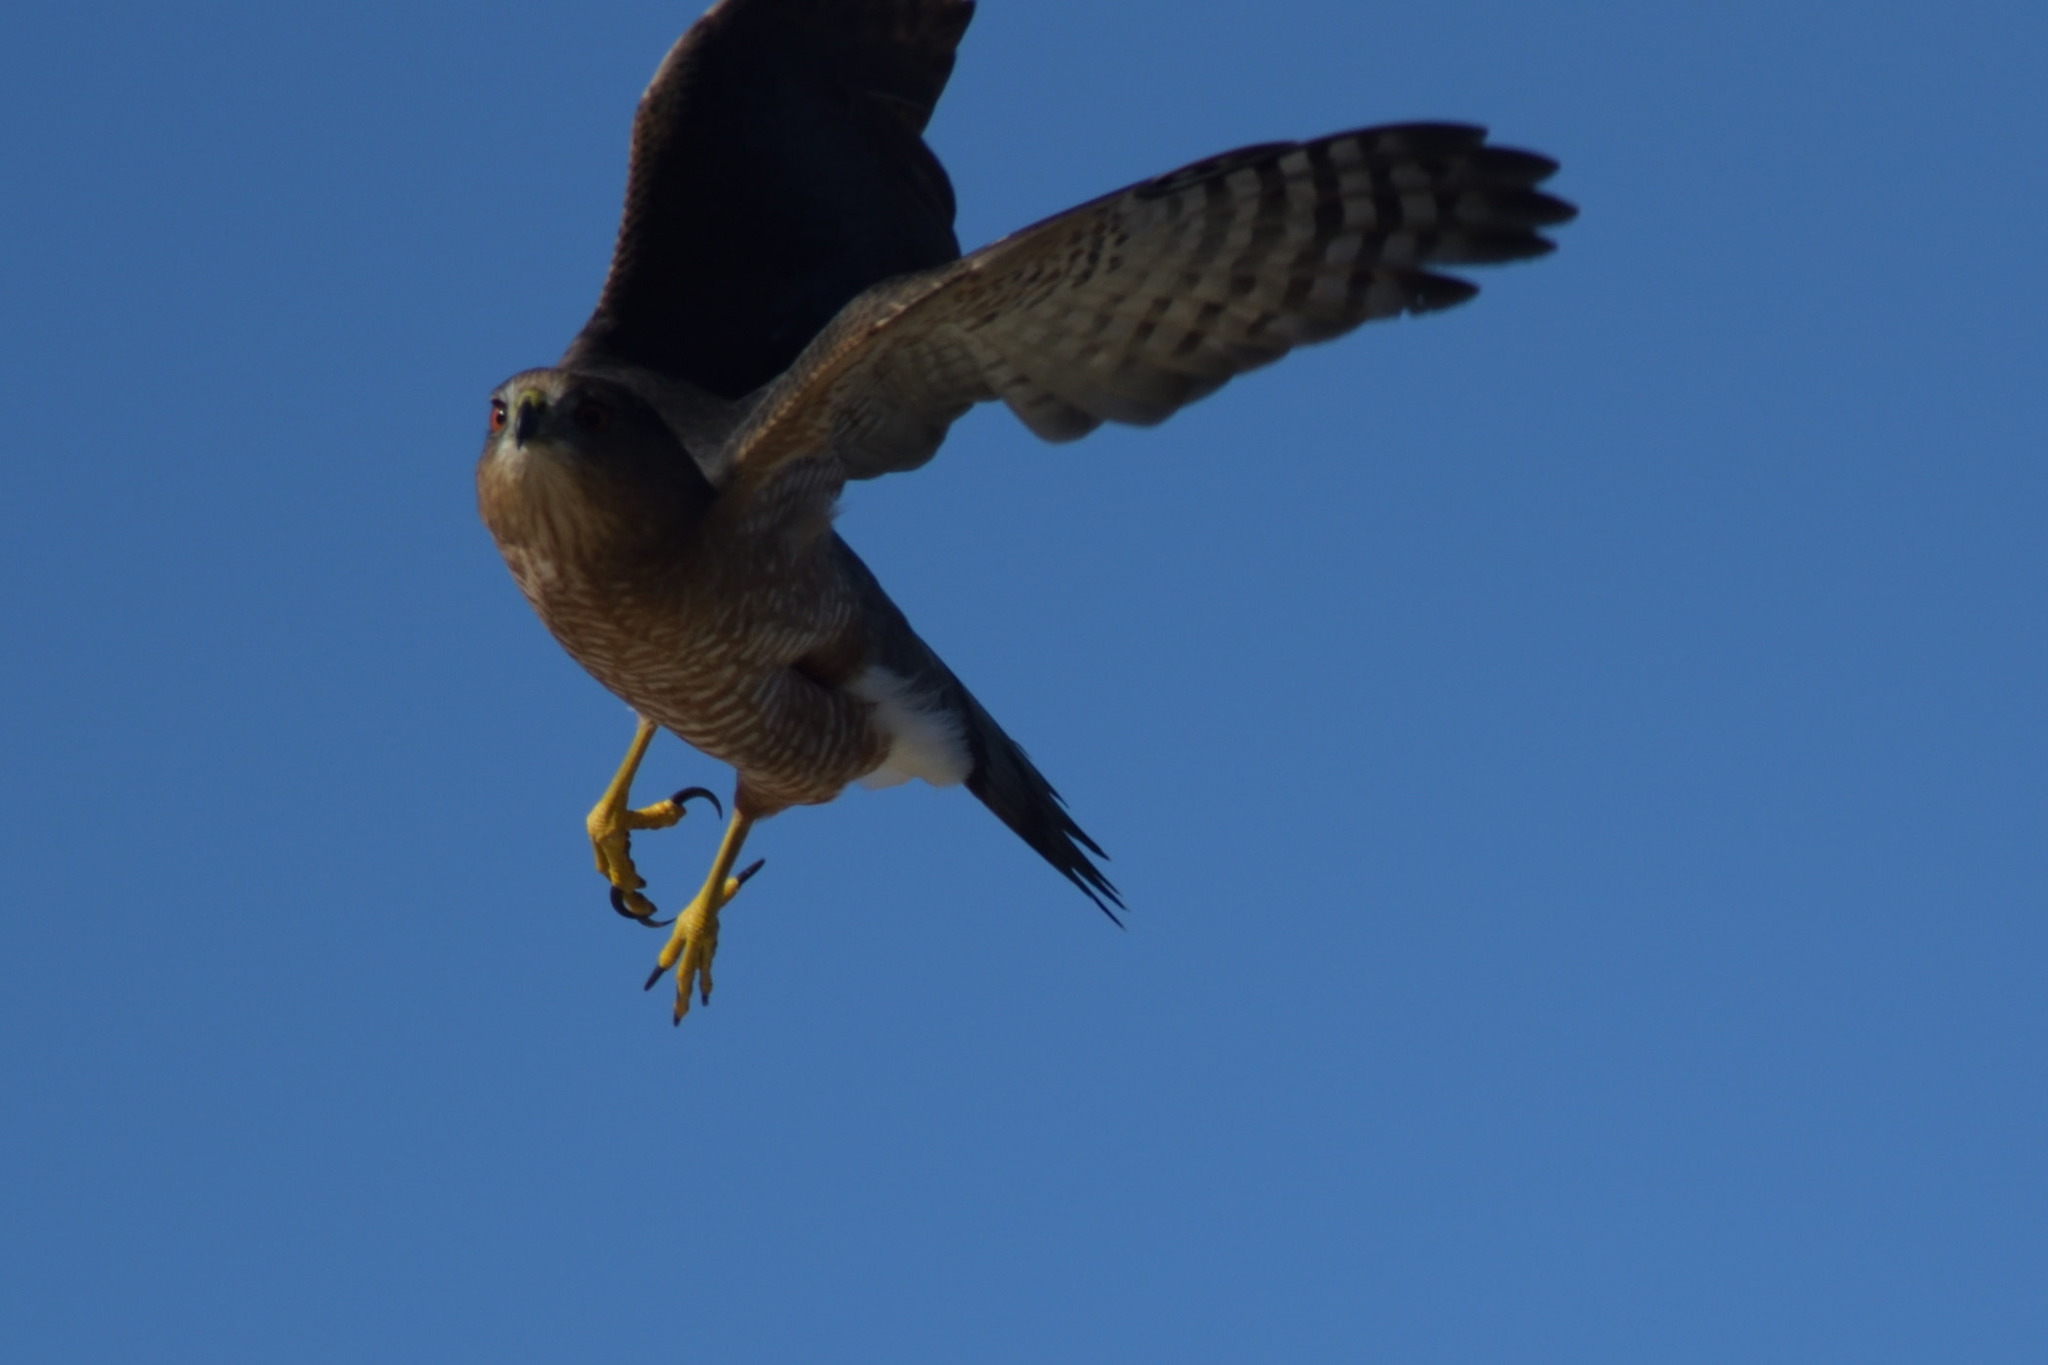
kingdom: Animalia
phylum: Chordata
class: Aves
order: Accipitriformes
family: Accipitridae
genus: Accipiter
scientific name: Accipiter cooperii
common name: Cooper's hawk
